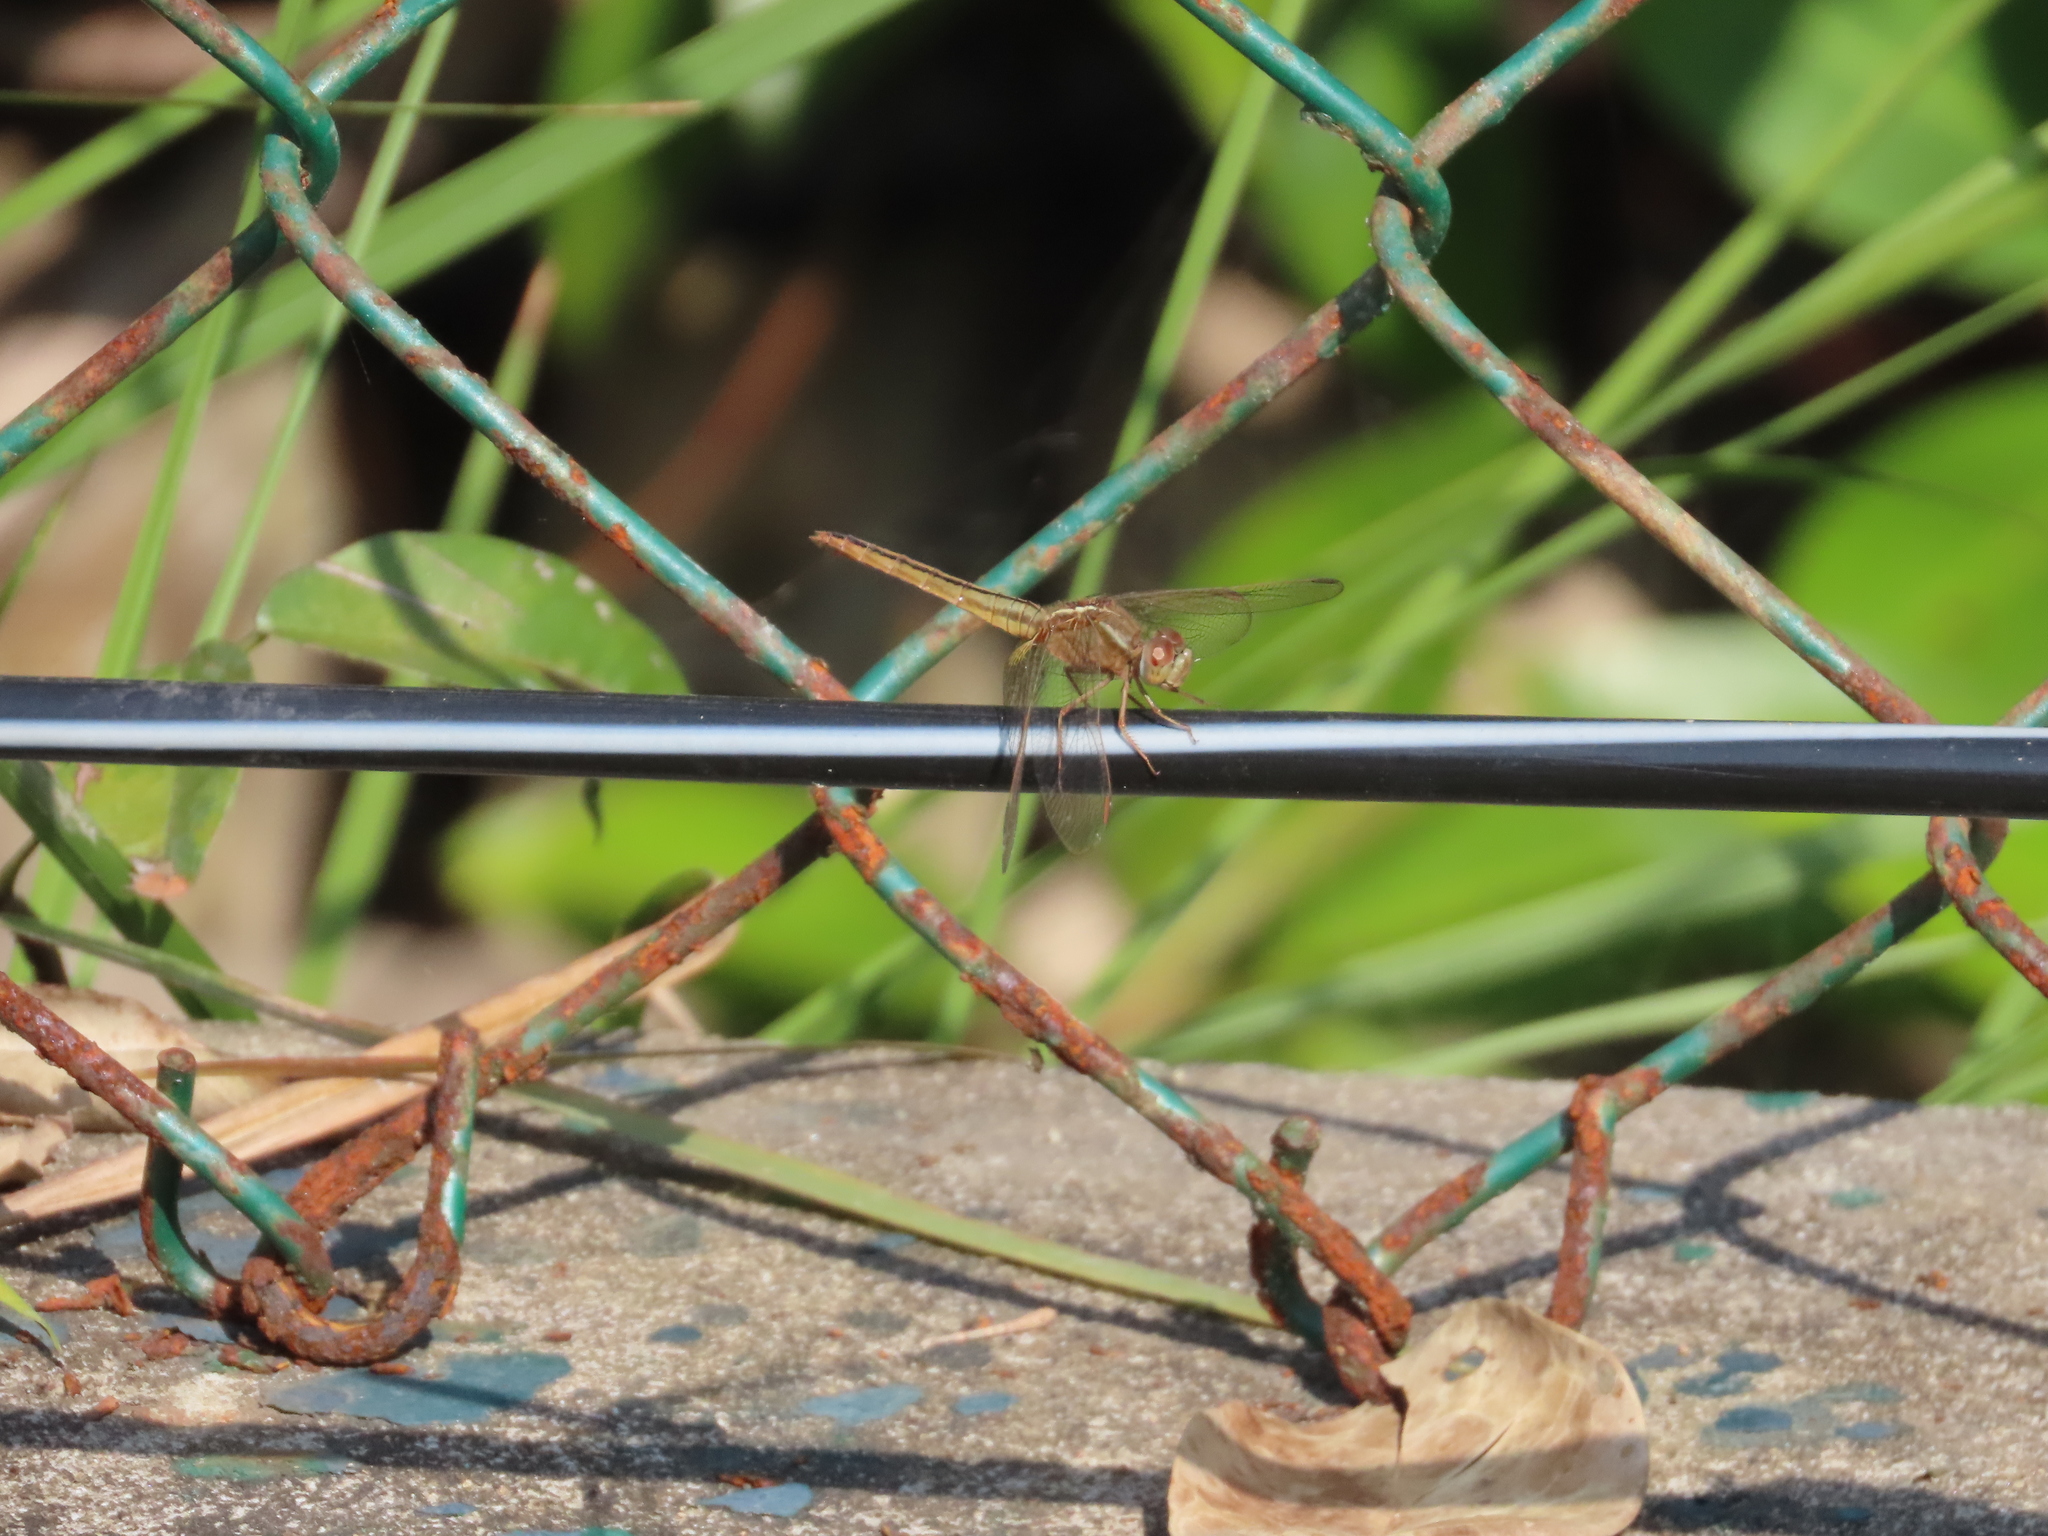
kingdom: Animalia
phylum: Arthropoda
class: Insecta
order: Odonata
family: Libellulidae
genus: Crocothemis
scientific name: Crocothemis servilia
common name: Scarlet skimmer
